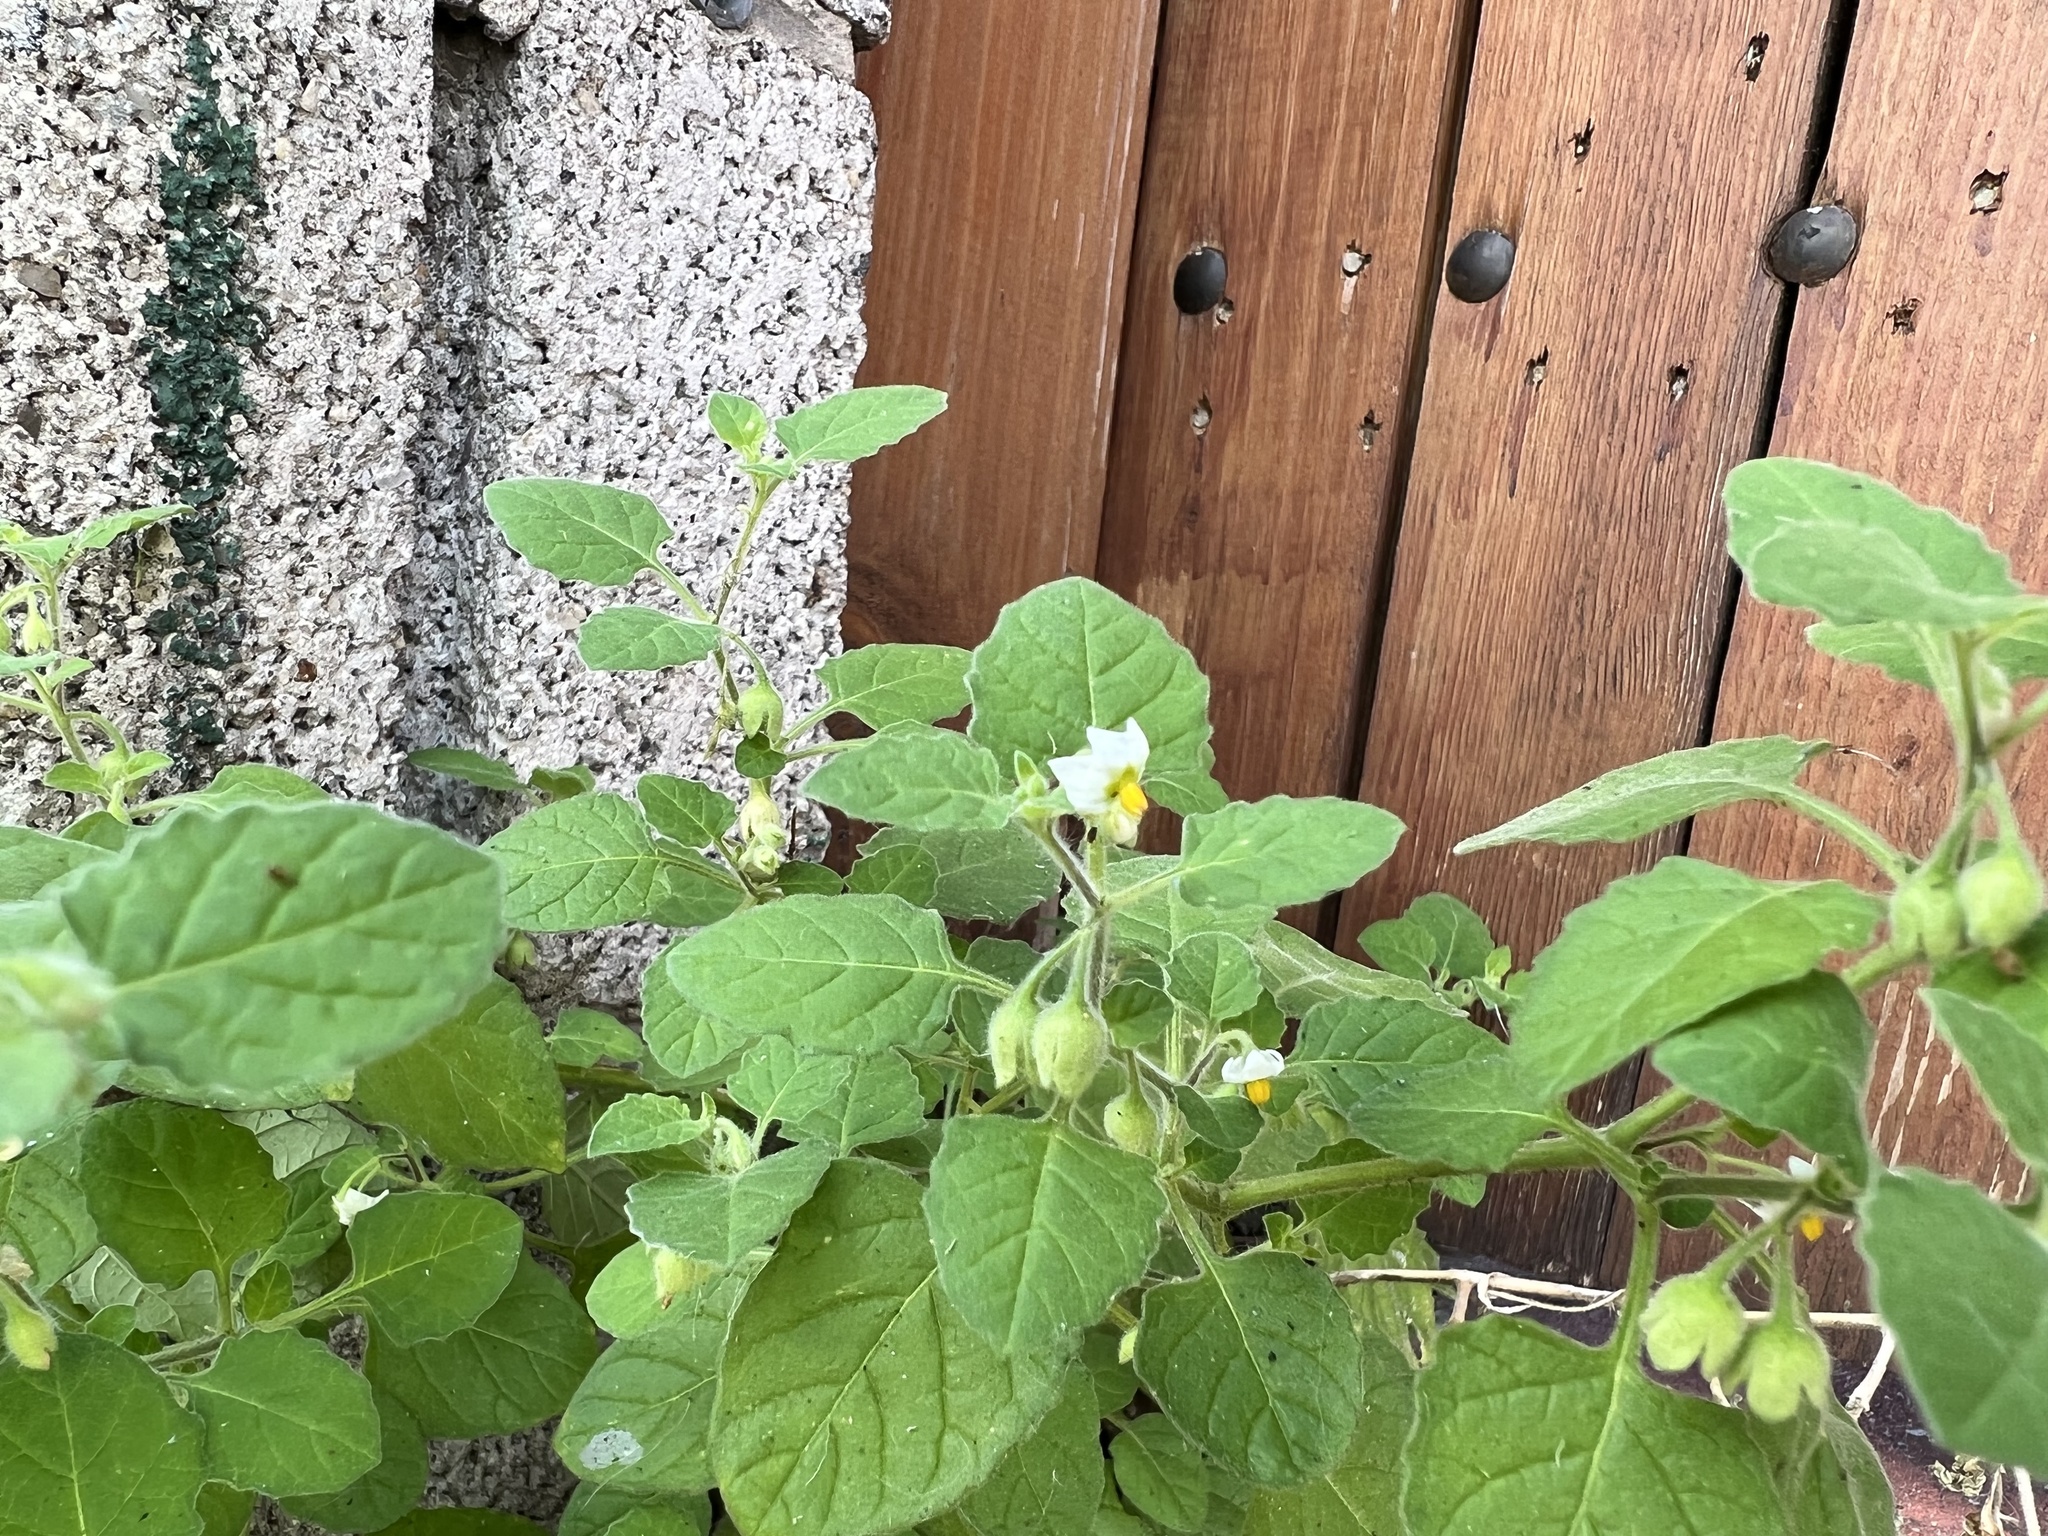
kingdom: Plantae
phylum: Tracheophyta
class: Magnoliopsida
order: Solanales
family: Solanaceae
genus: Solanum
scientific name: Solanum sarrachoides
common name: Leafy-fruited nightshade
